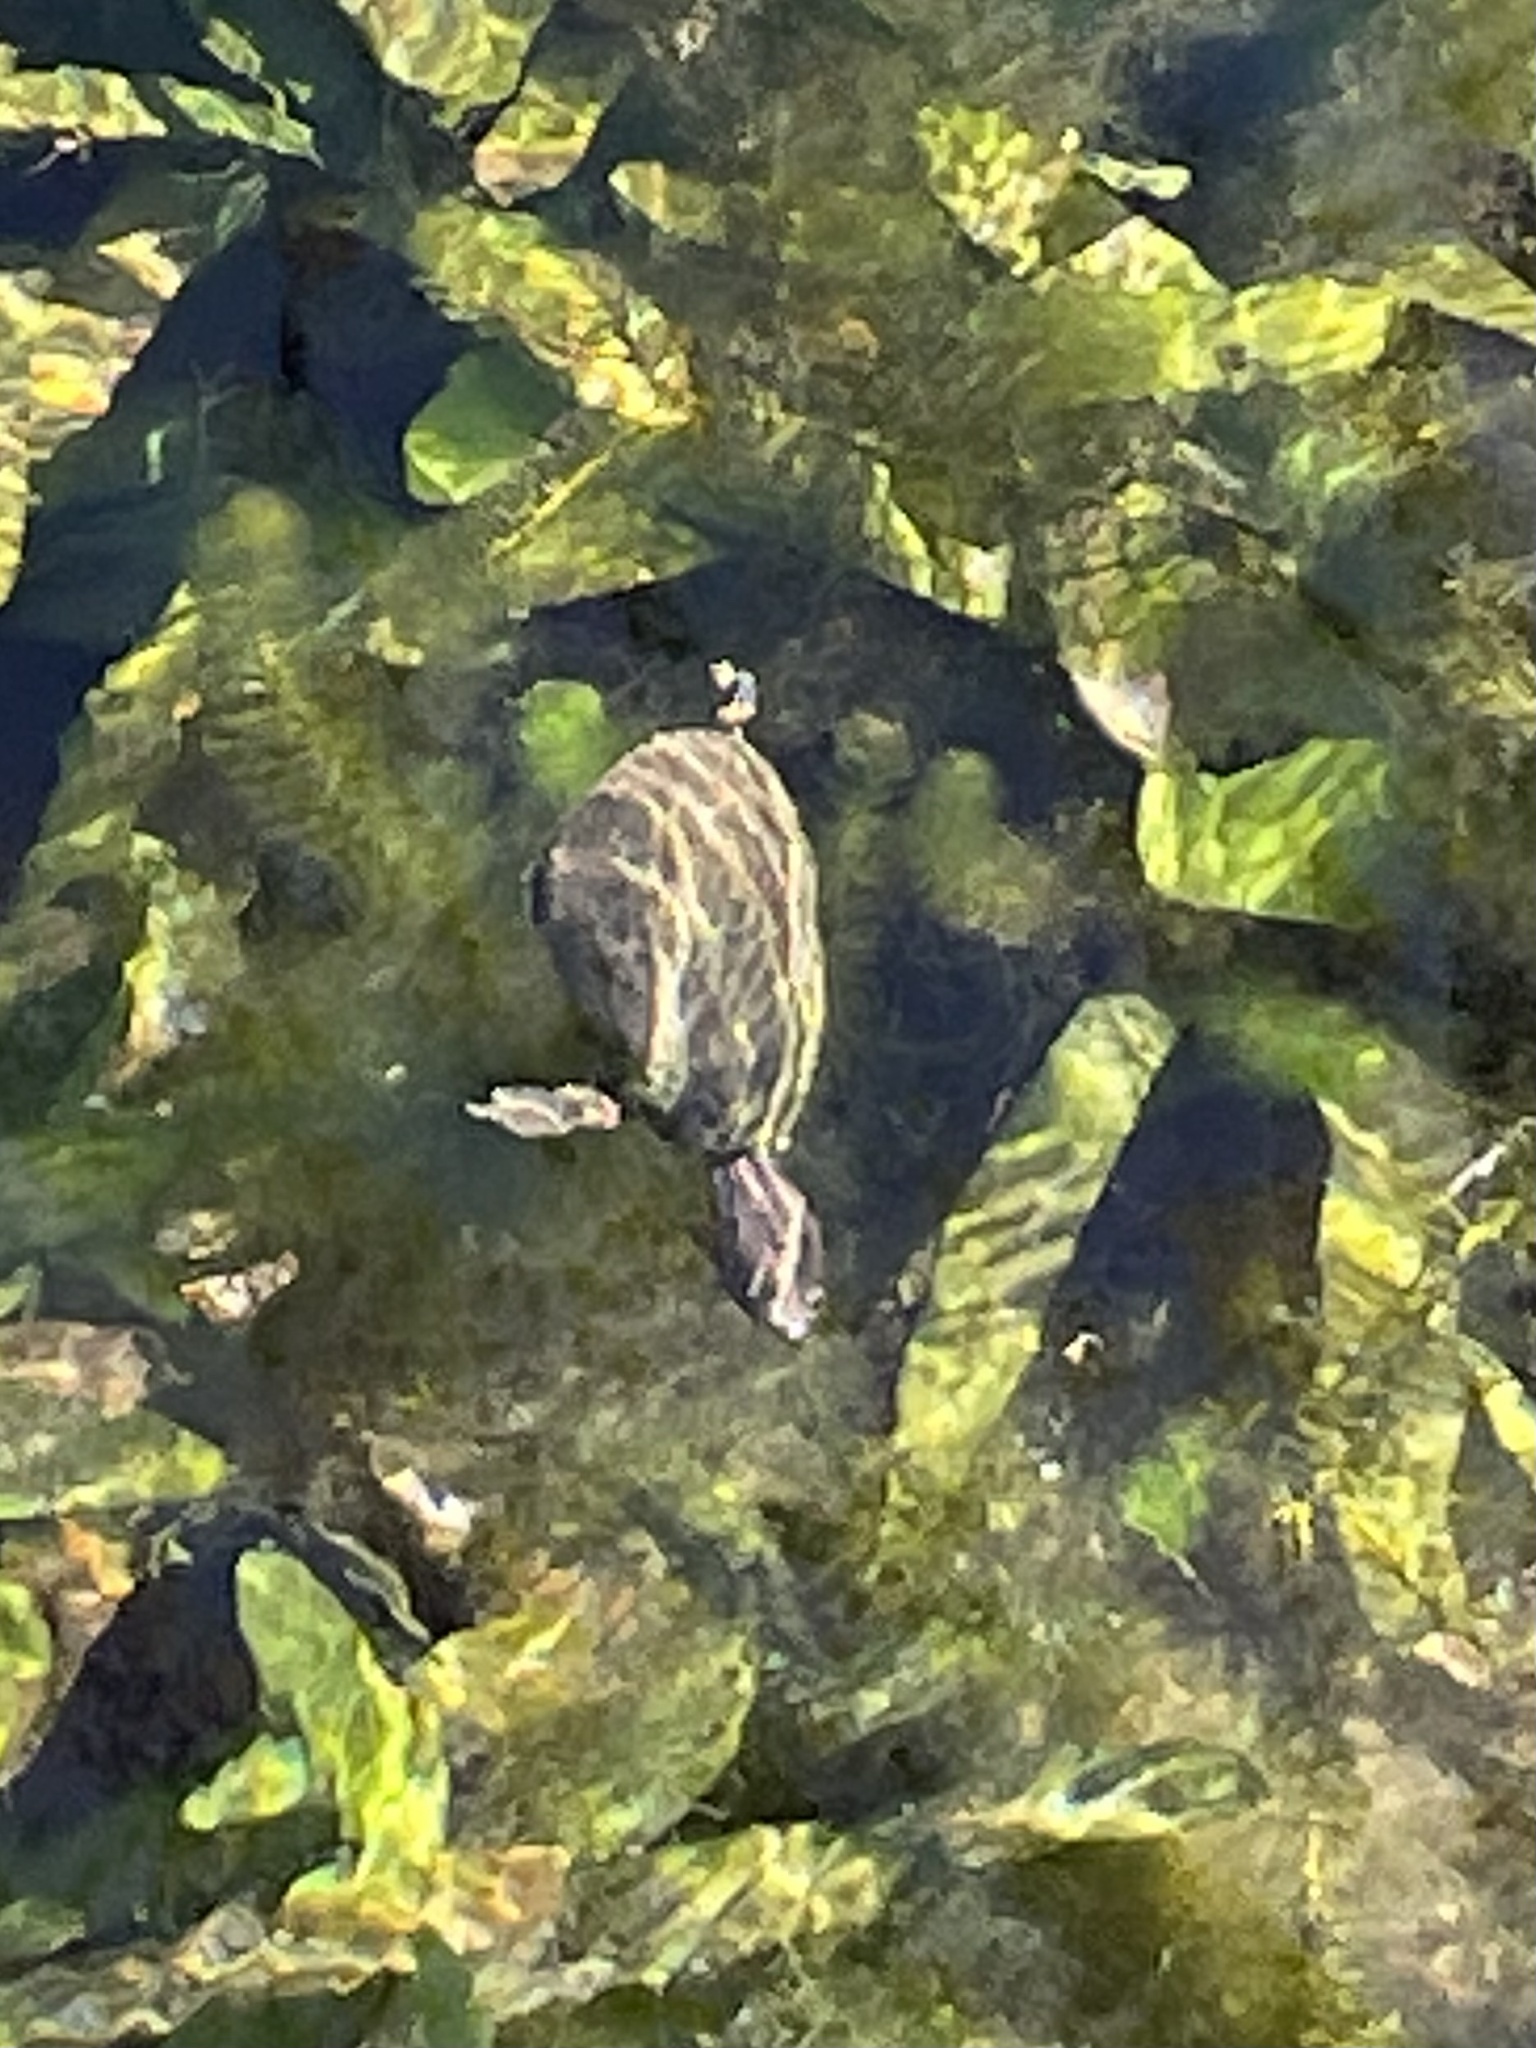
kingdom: Animalia
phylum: Chordata
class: Testudines
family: Kinosternidae
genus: Sternotherus
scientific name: Sternotherus odoratus
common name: Common musk turtle
